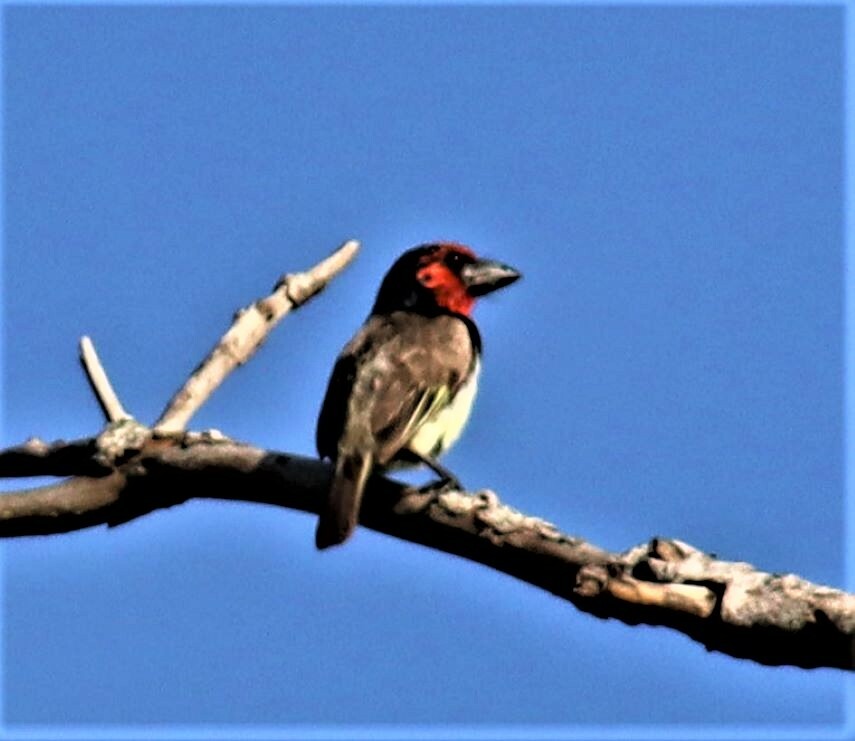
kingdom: Animalia
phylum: Chordata
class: Aves
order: Piciformes
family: Lybiidae
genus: Lybius
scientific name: Lybius torquatus
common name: Black-collared barbet
